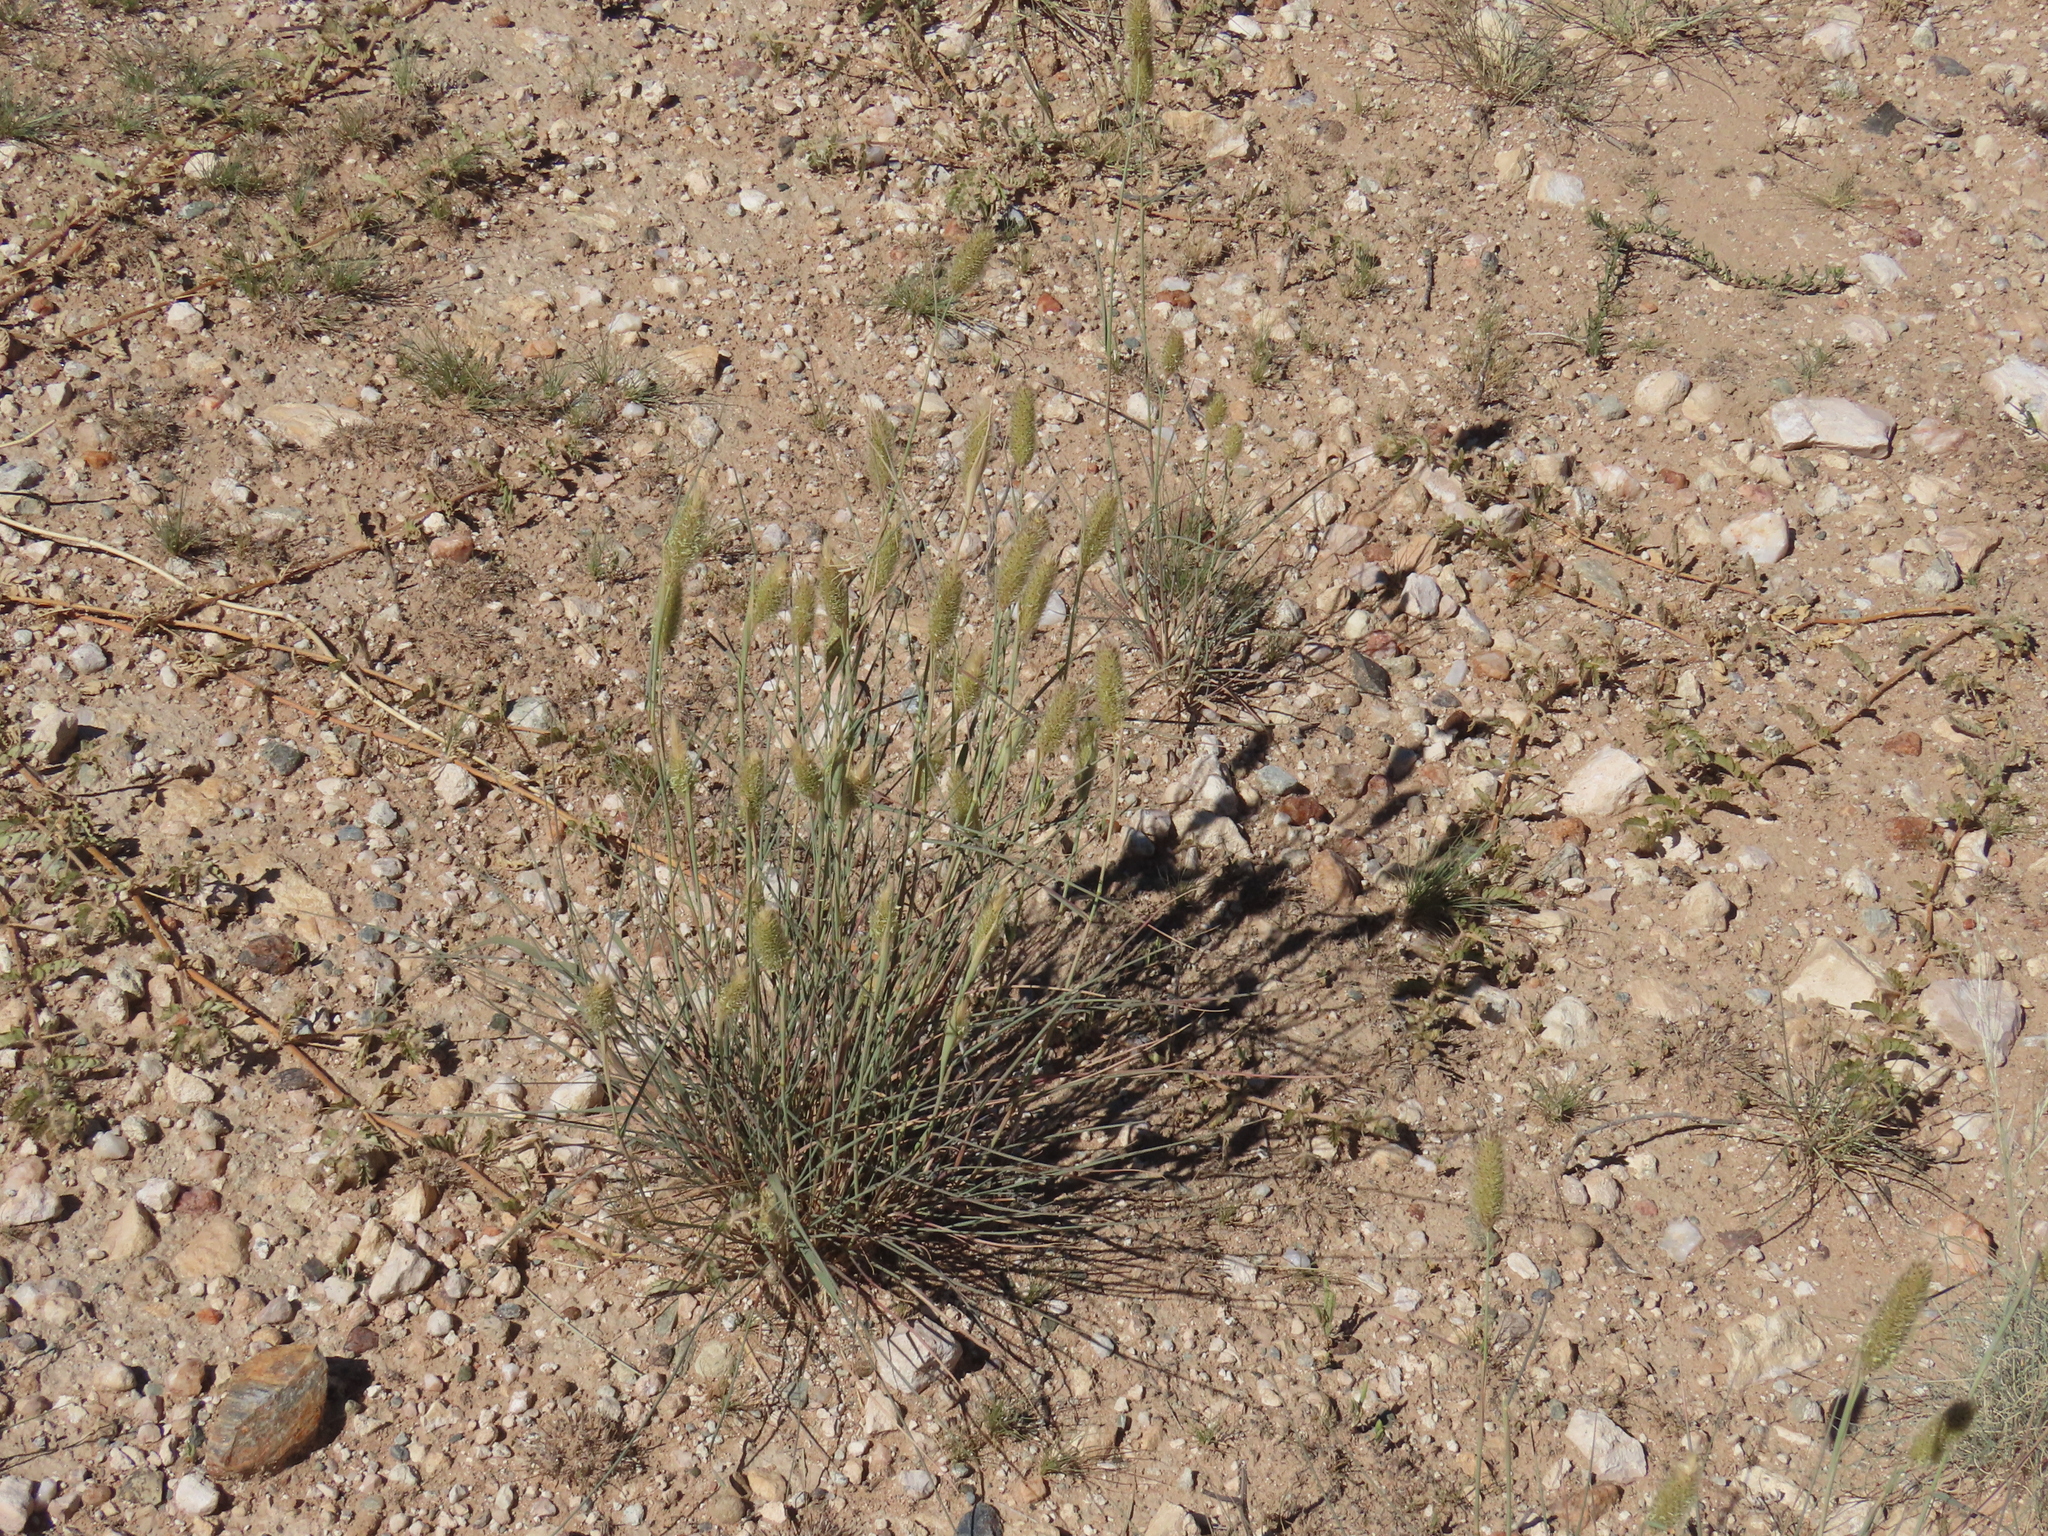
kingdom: Plantae
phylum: Tracheophyta
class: Liliopsida
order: Poales
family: Poaceae
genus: Fingerhuthia
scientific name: Fingerhuthia africana
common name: Zulu fescue
